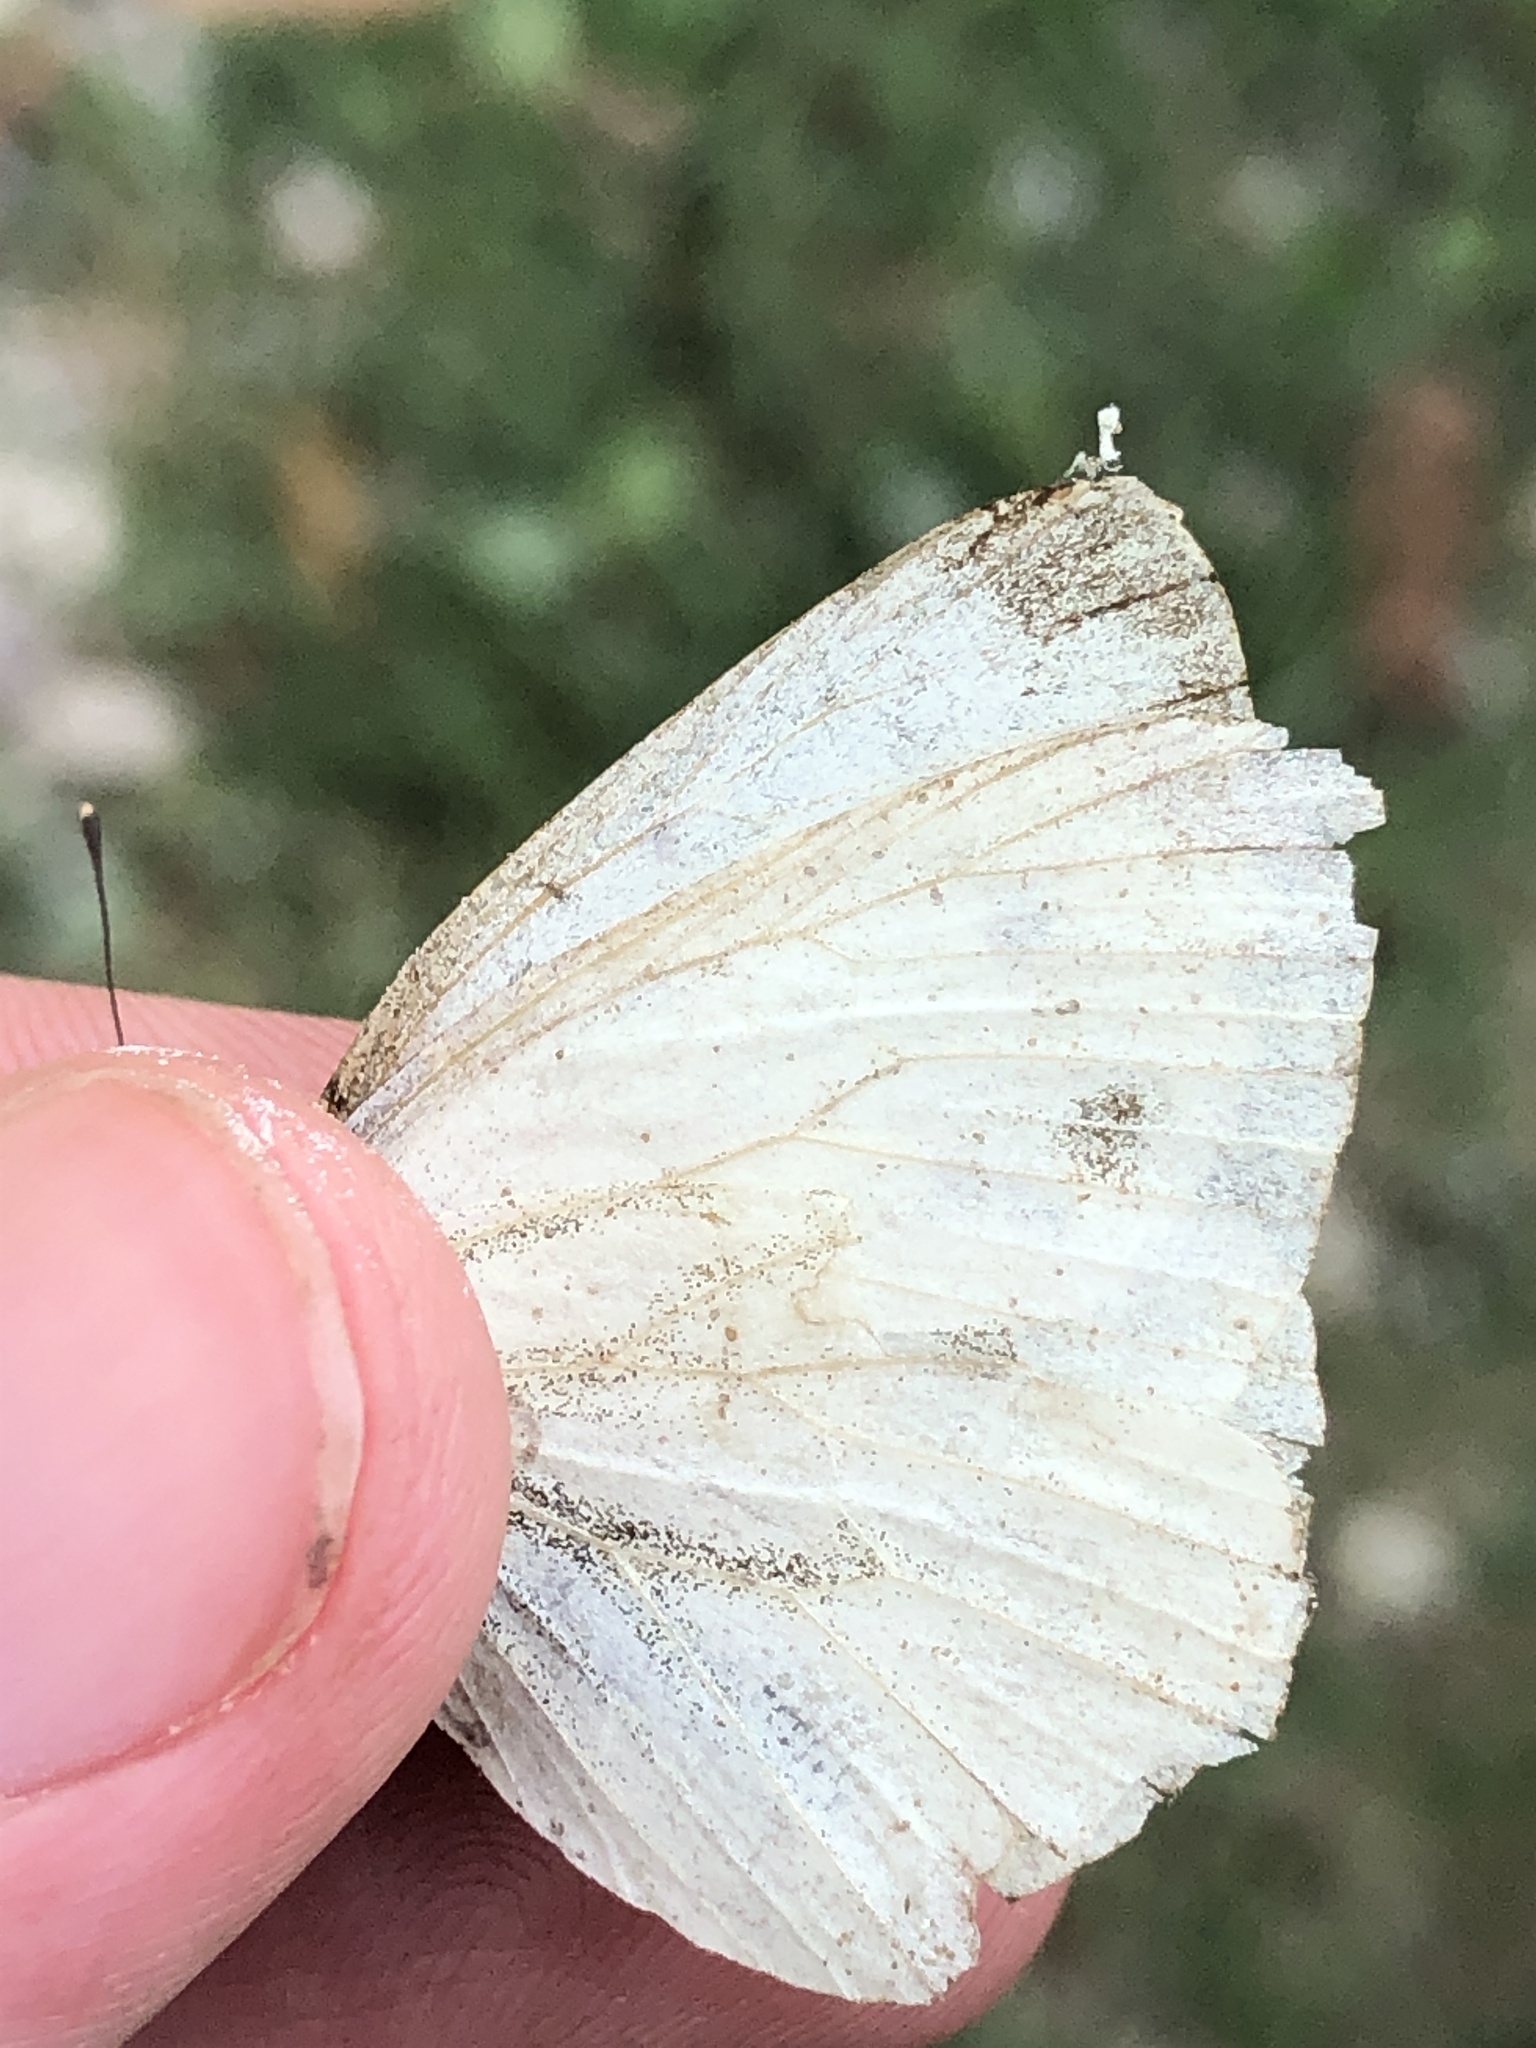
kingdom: Animalia
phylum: Arthropoda
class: Insecta
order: Lepidoptera
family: Pieridae
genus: Pieris
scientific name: Pieris napi
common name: Green-veined white
